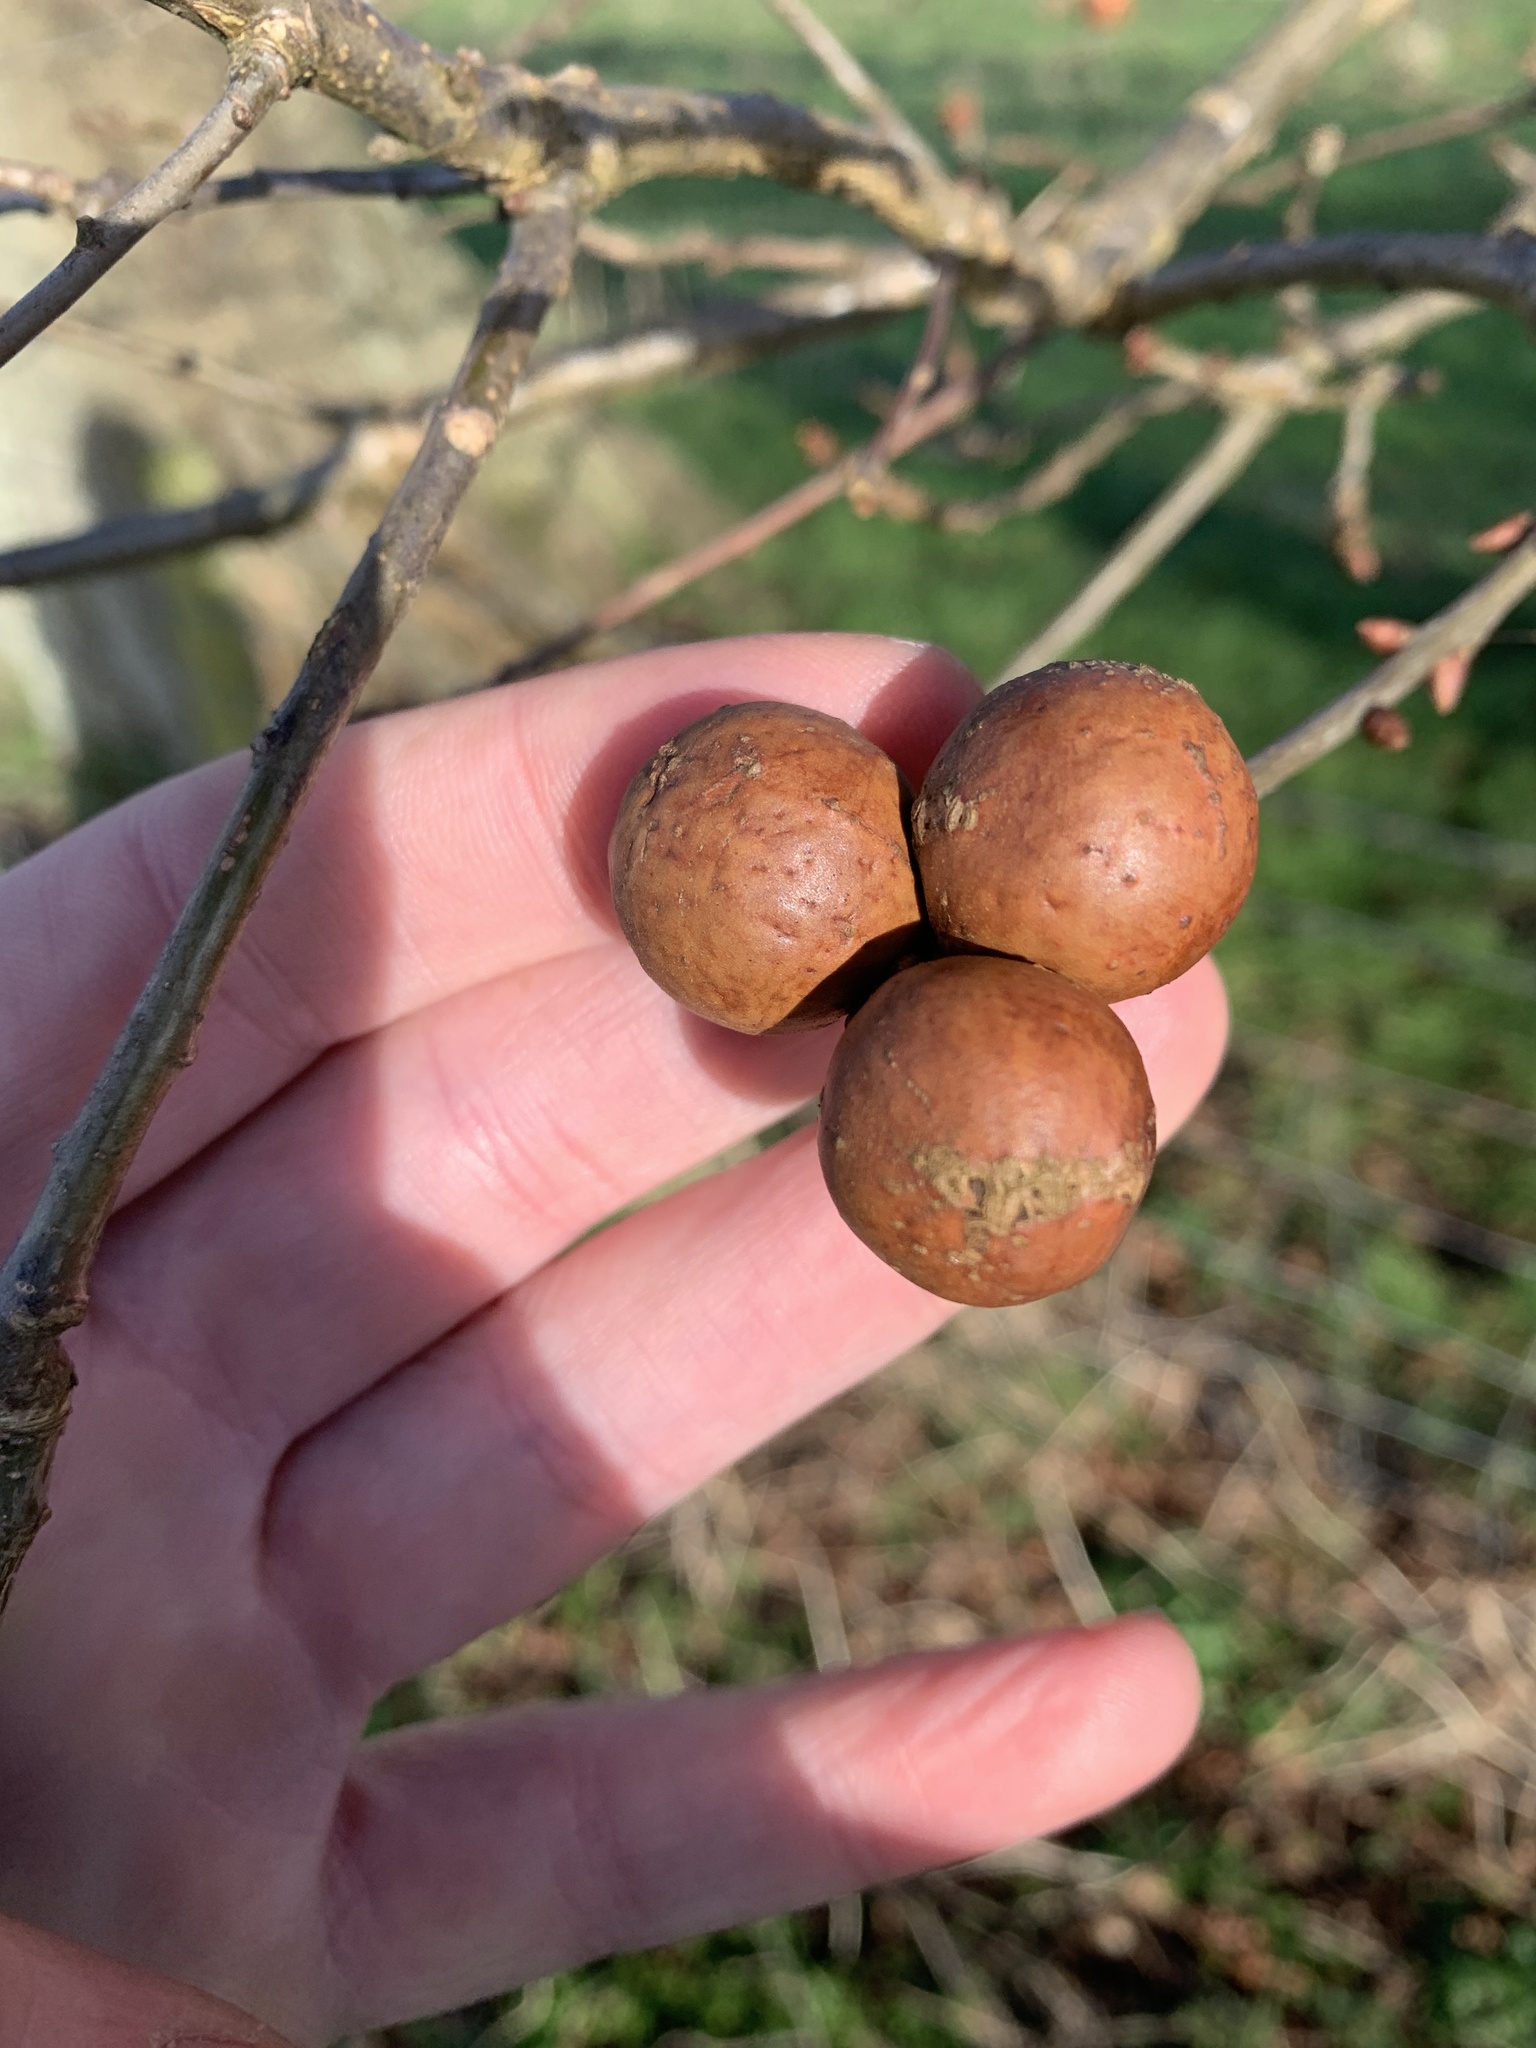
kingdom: Animalia
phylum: Arthropoda
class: Insecta
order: Hymenoptera
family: Cynipidae
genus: Andricus
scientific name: Andricus kollari
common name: Marble gall
